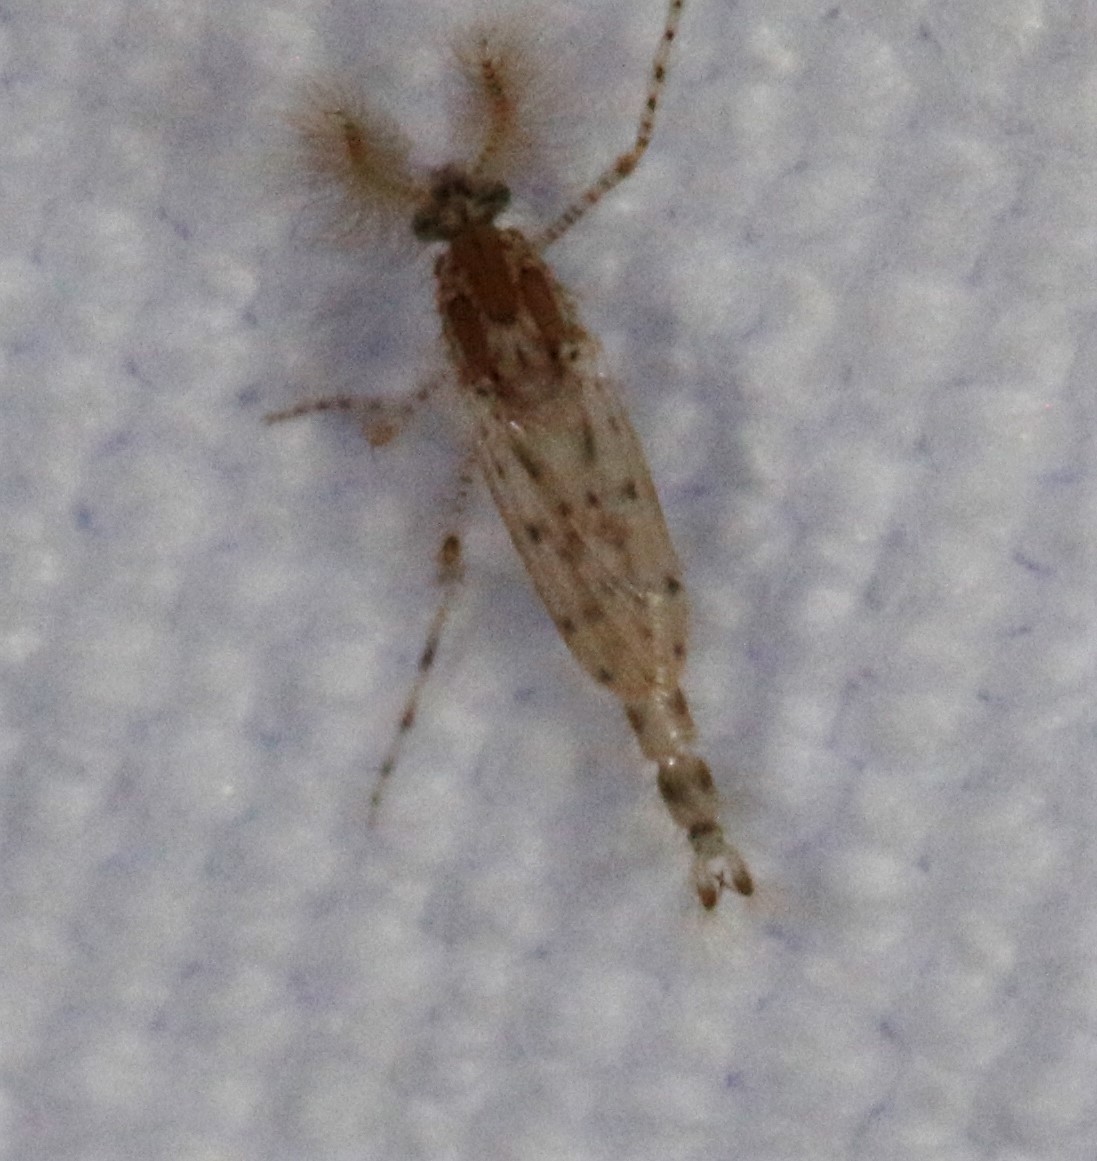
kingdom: Animalia
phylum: Arthropoda
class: Insecta
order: Diptera
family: Chaoboridae
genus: Chaoborus
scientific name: Chaoborus punctipennis
